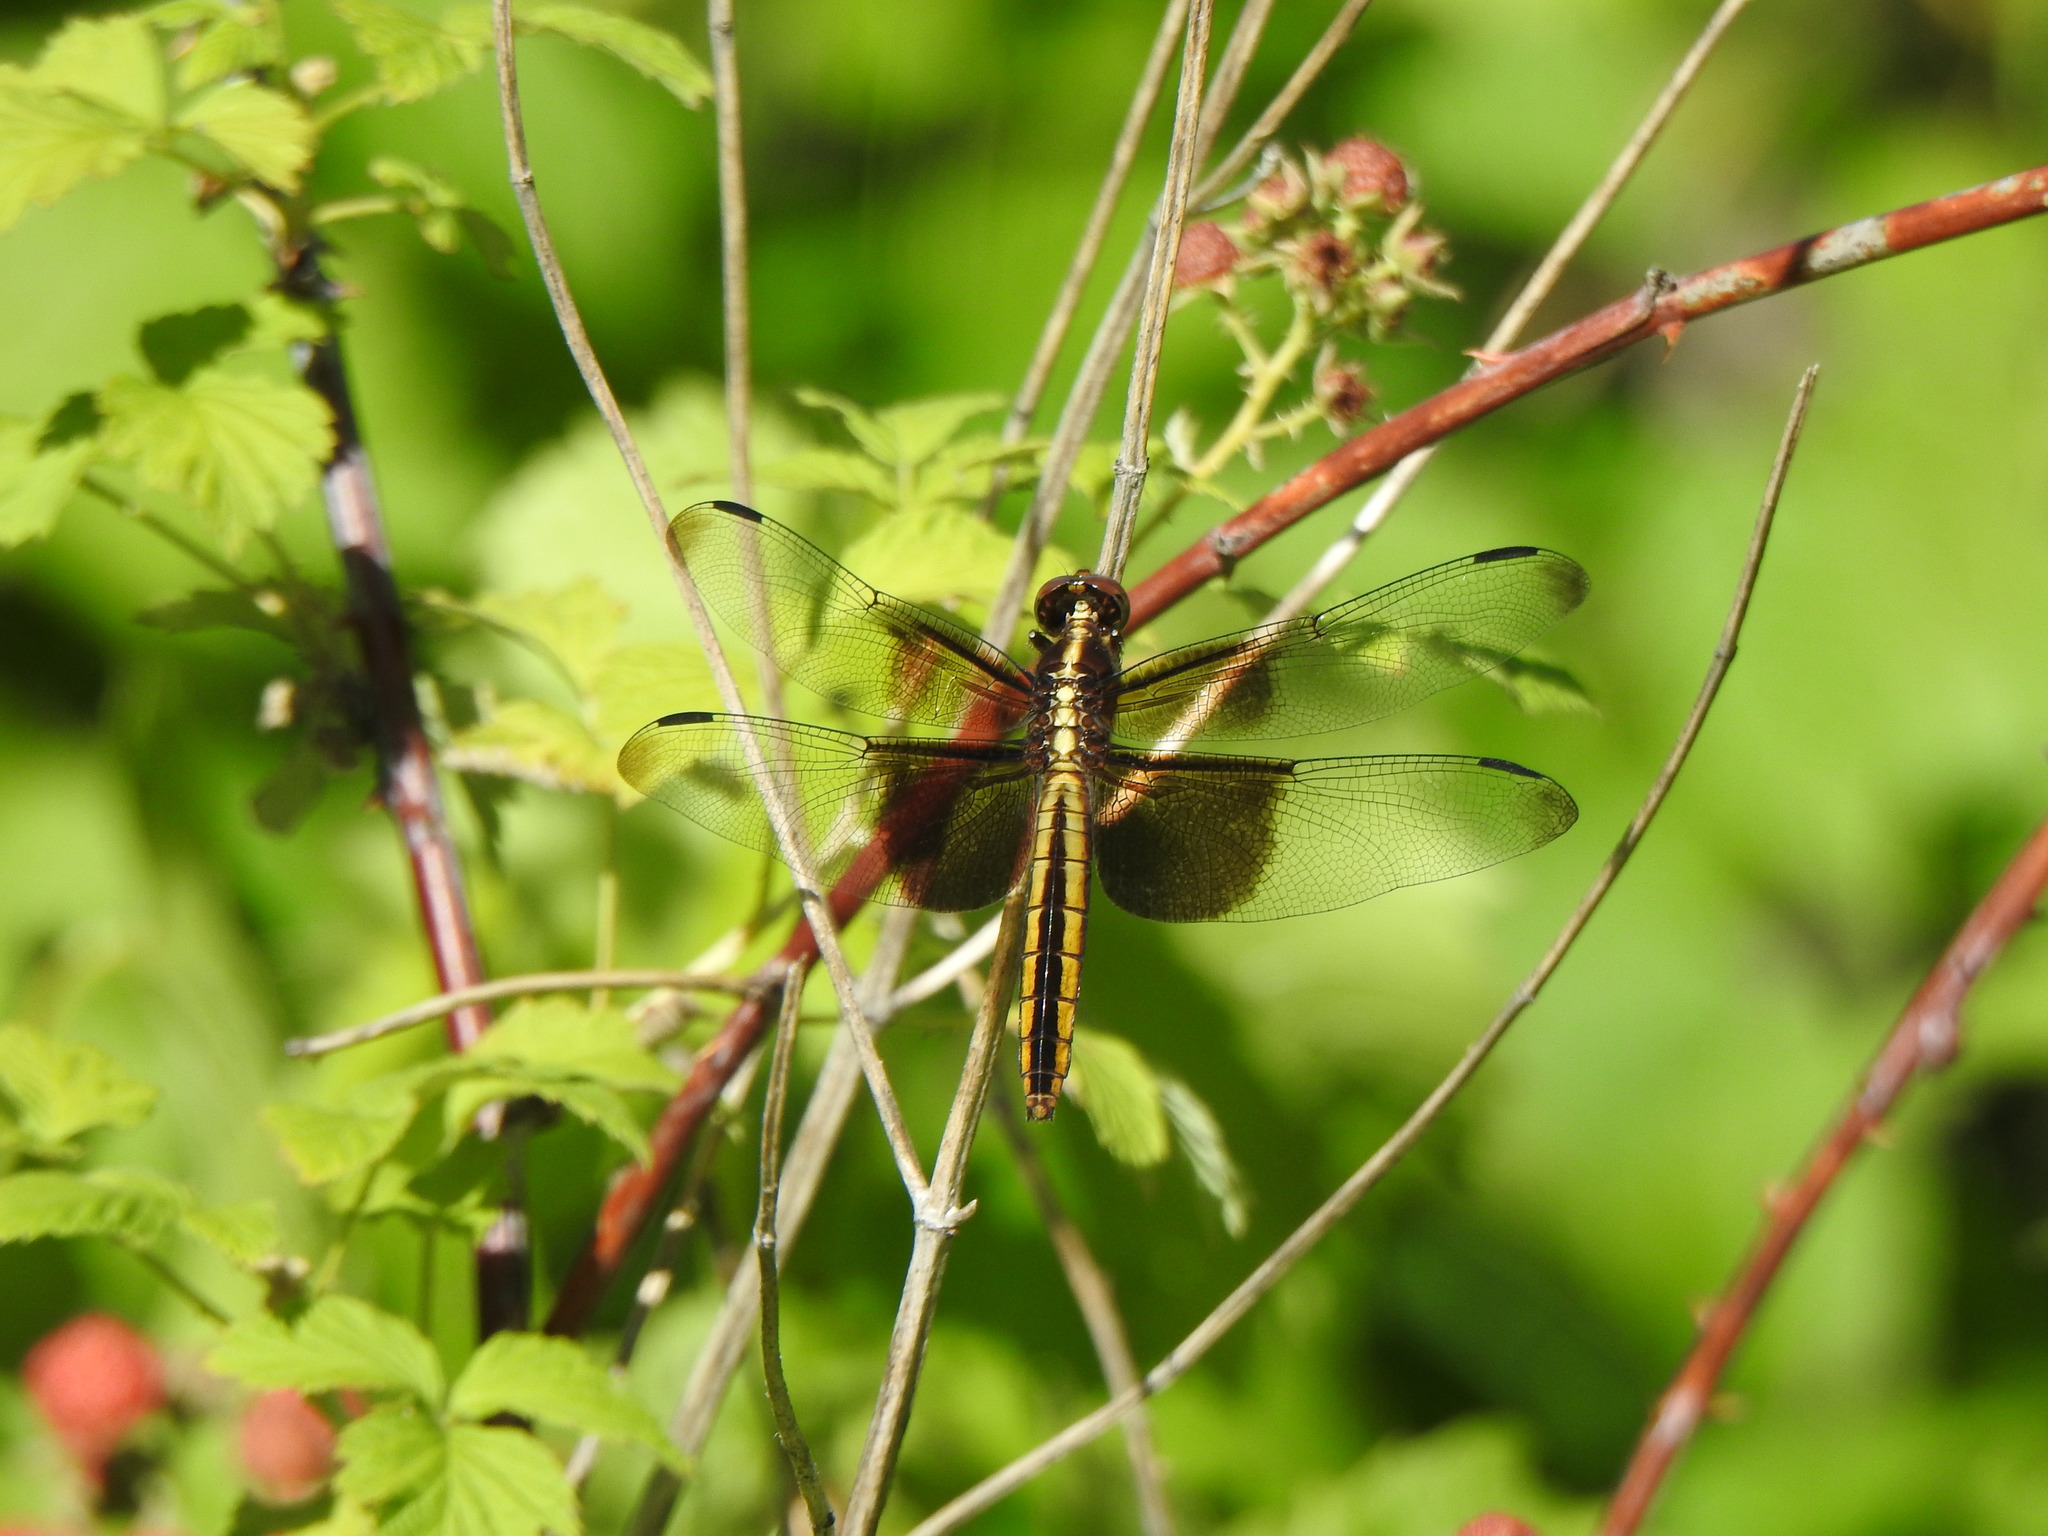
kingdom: Animalia
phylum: Arthropoda
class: Insecta
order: Odonata
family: Libellulidae
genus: Libellula
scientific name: Libellula luctuosa
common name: Widow skimmer
